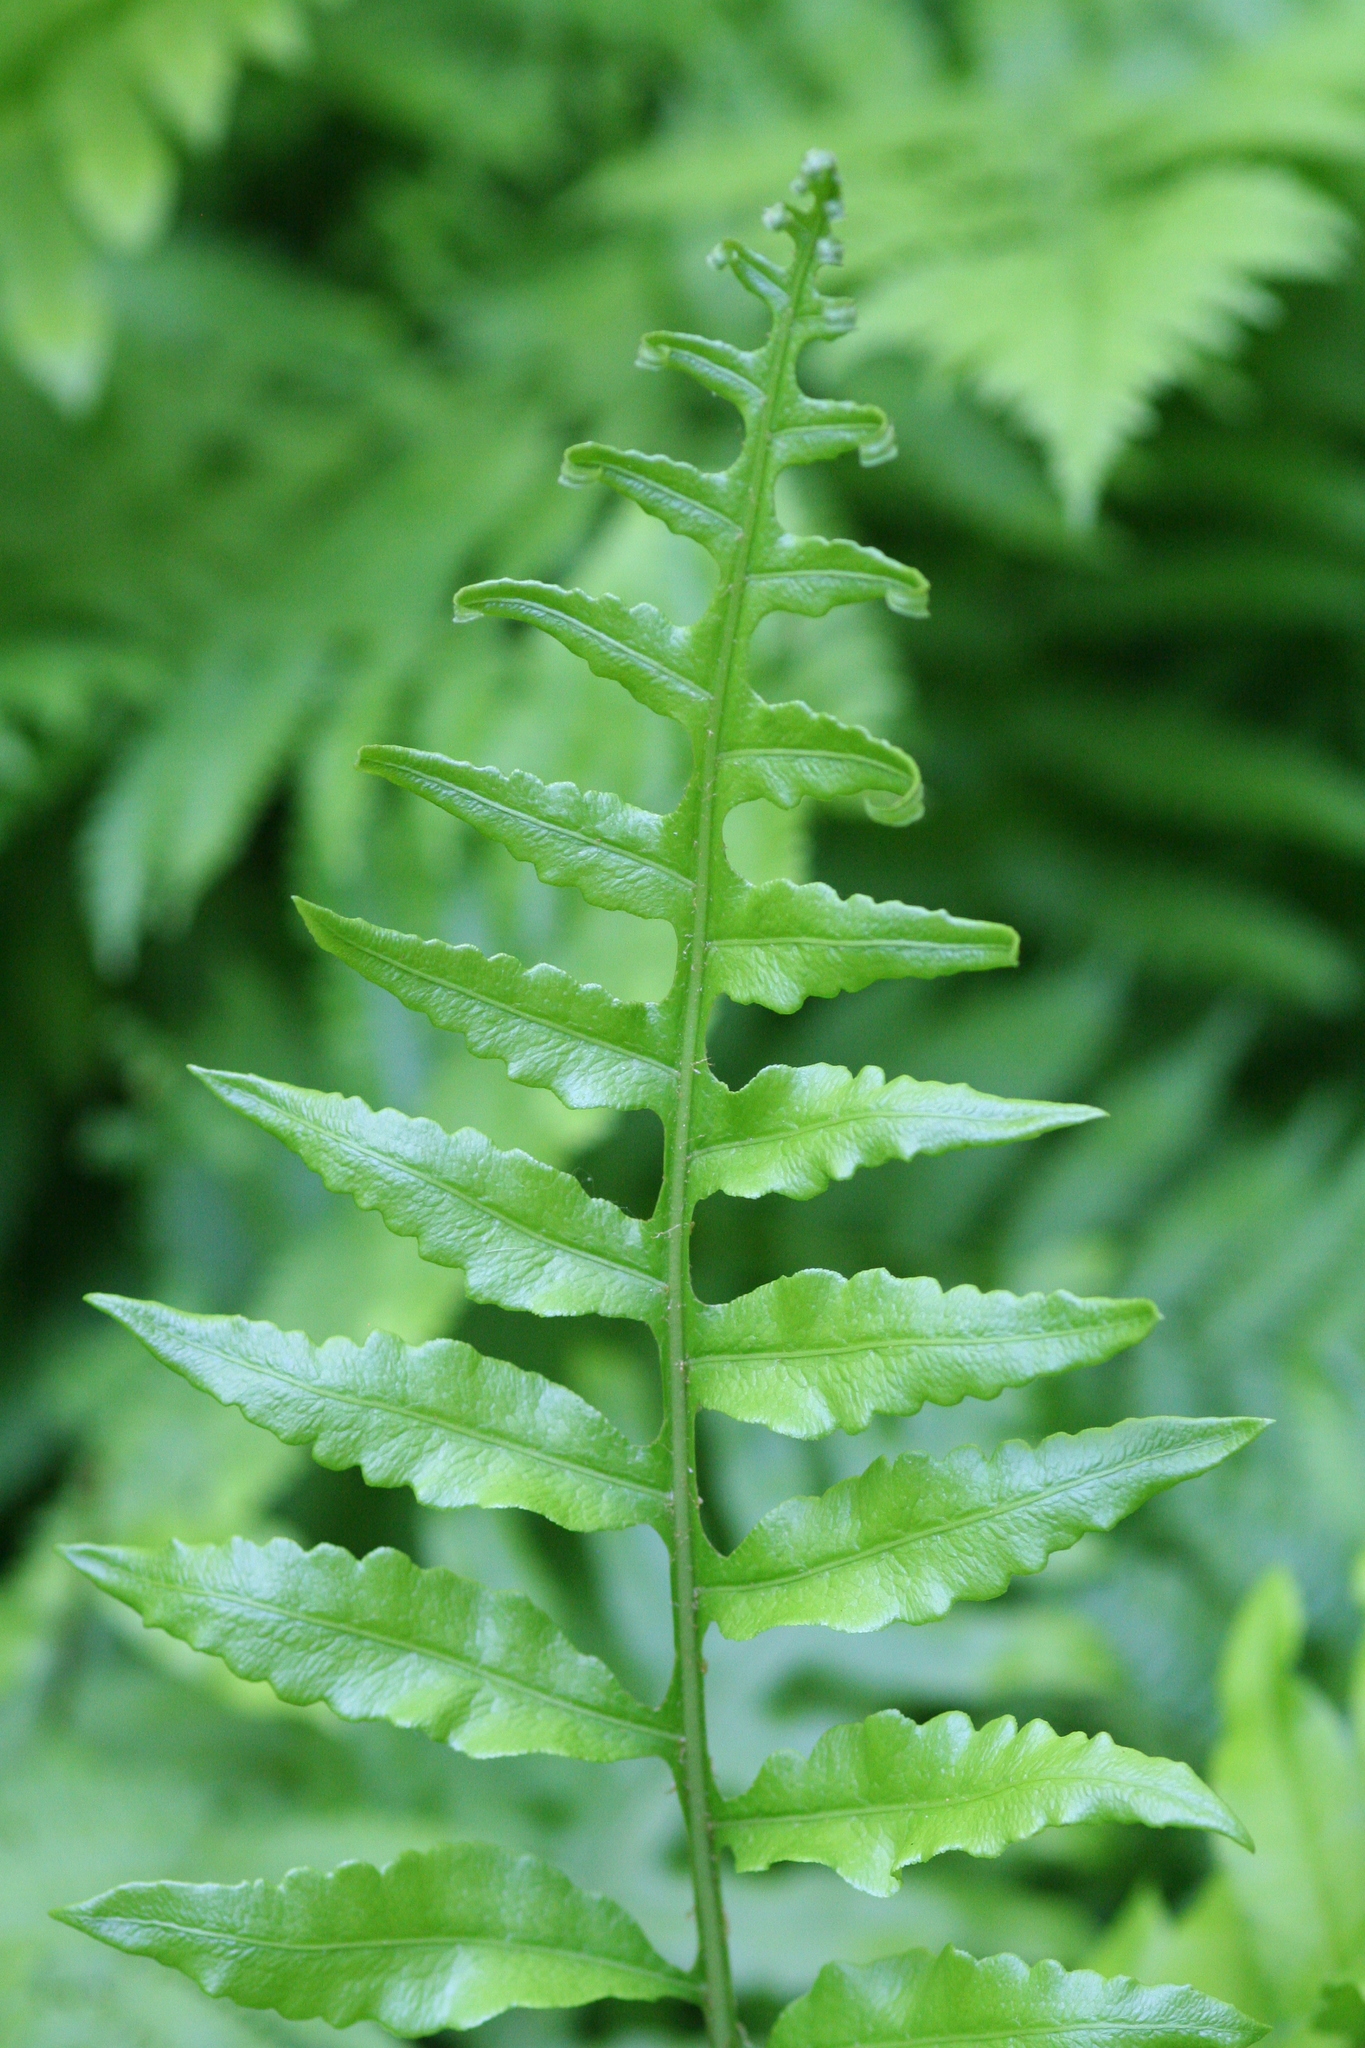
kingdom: Plantae
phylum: Tracheophyta
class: Polypodiopsida
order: Polypodiales
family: Blechnaceae
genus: Lorinseria
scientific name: Lorinseria areolata
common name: Dwarf chain fern
